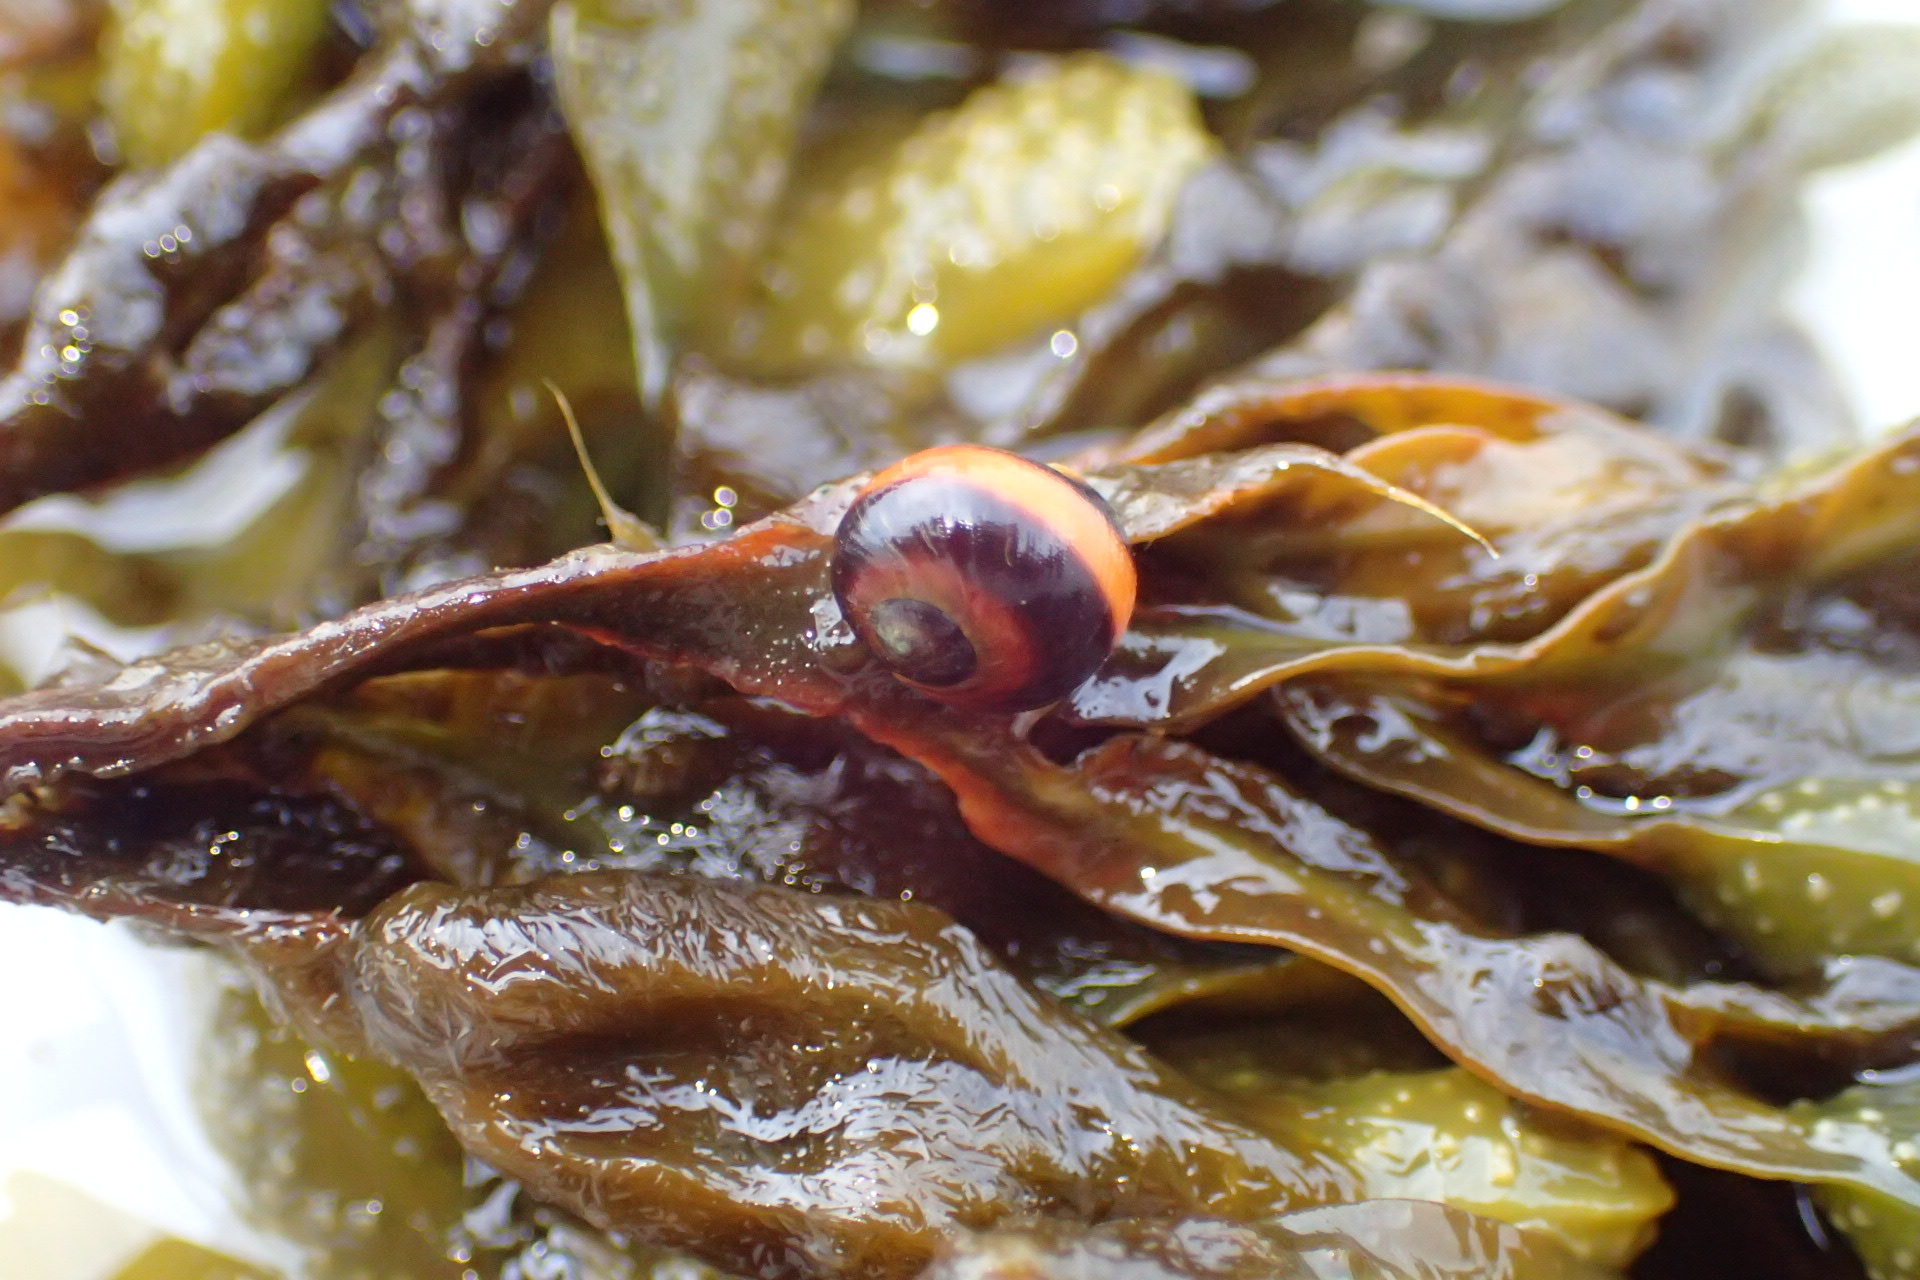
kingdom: Animalia
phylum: Mollusca
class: Gastropoda
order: Littorinimorpha
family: Littorinidae
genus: Littorina
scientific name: Littorina obtusata
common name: Flat periwinkle
